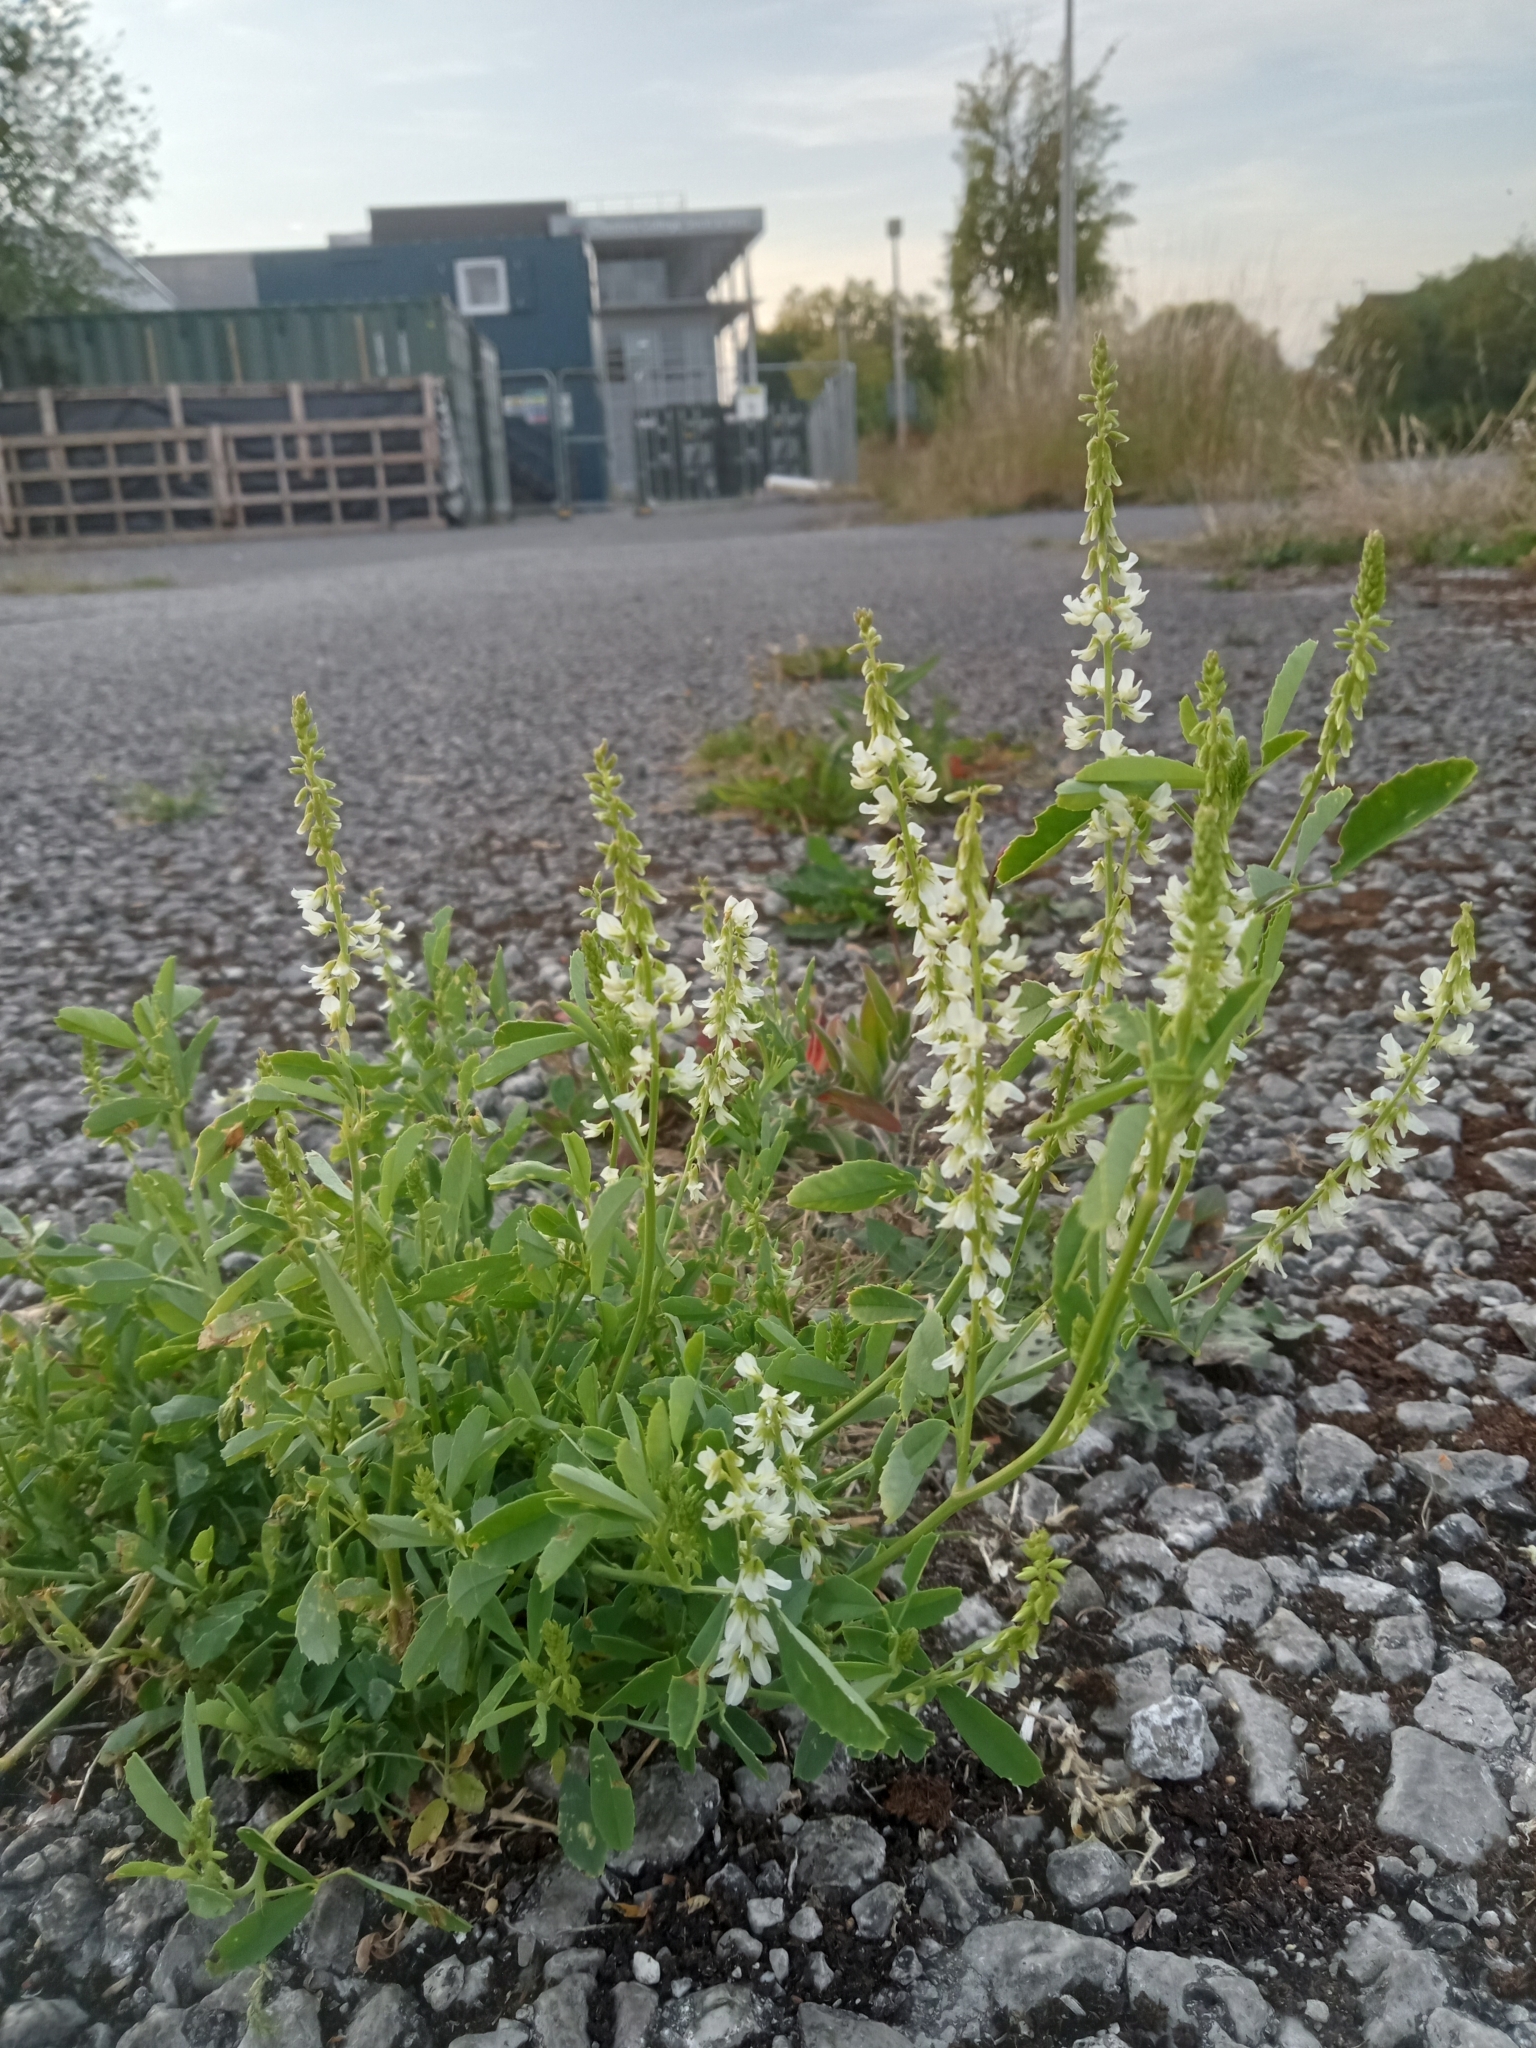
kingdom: Plantae
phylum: Tracheophyta
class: Magnoliopsida
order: Fabales
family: Fabaceae
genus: Melilotus
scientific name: Melilotus albus
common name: White melilot
